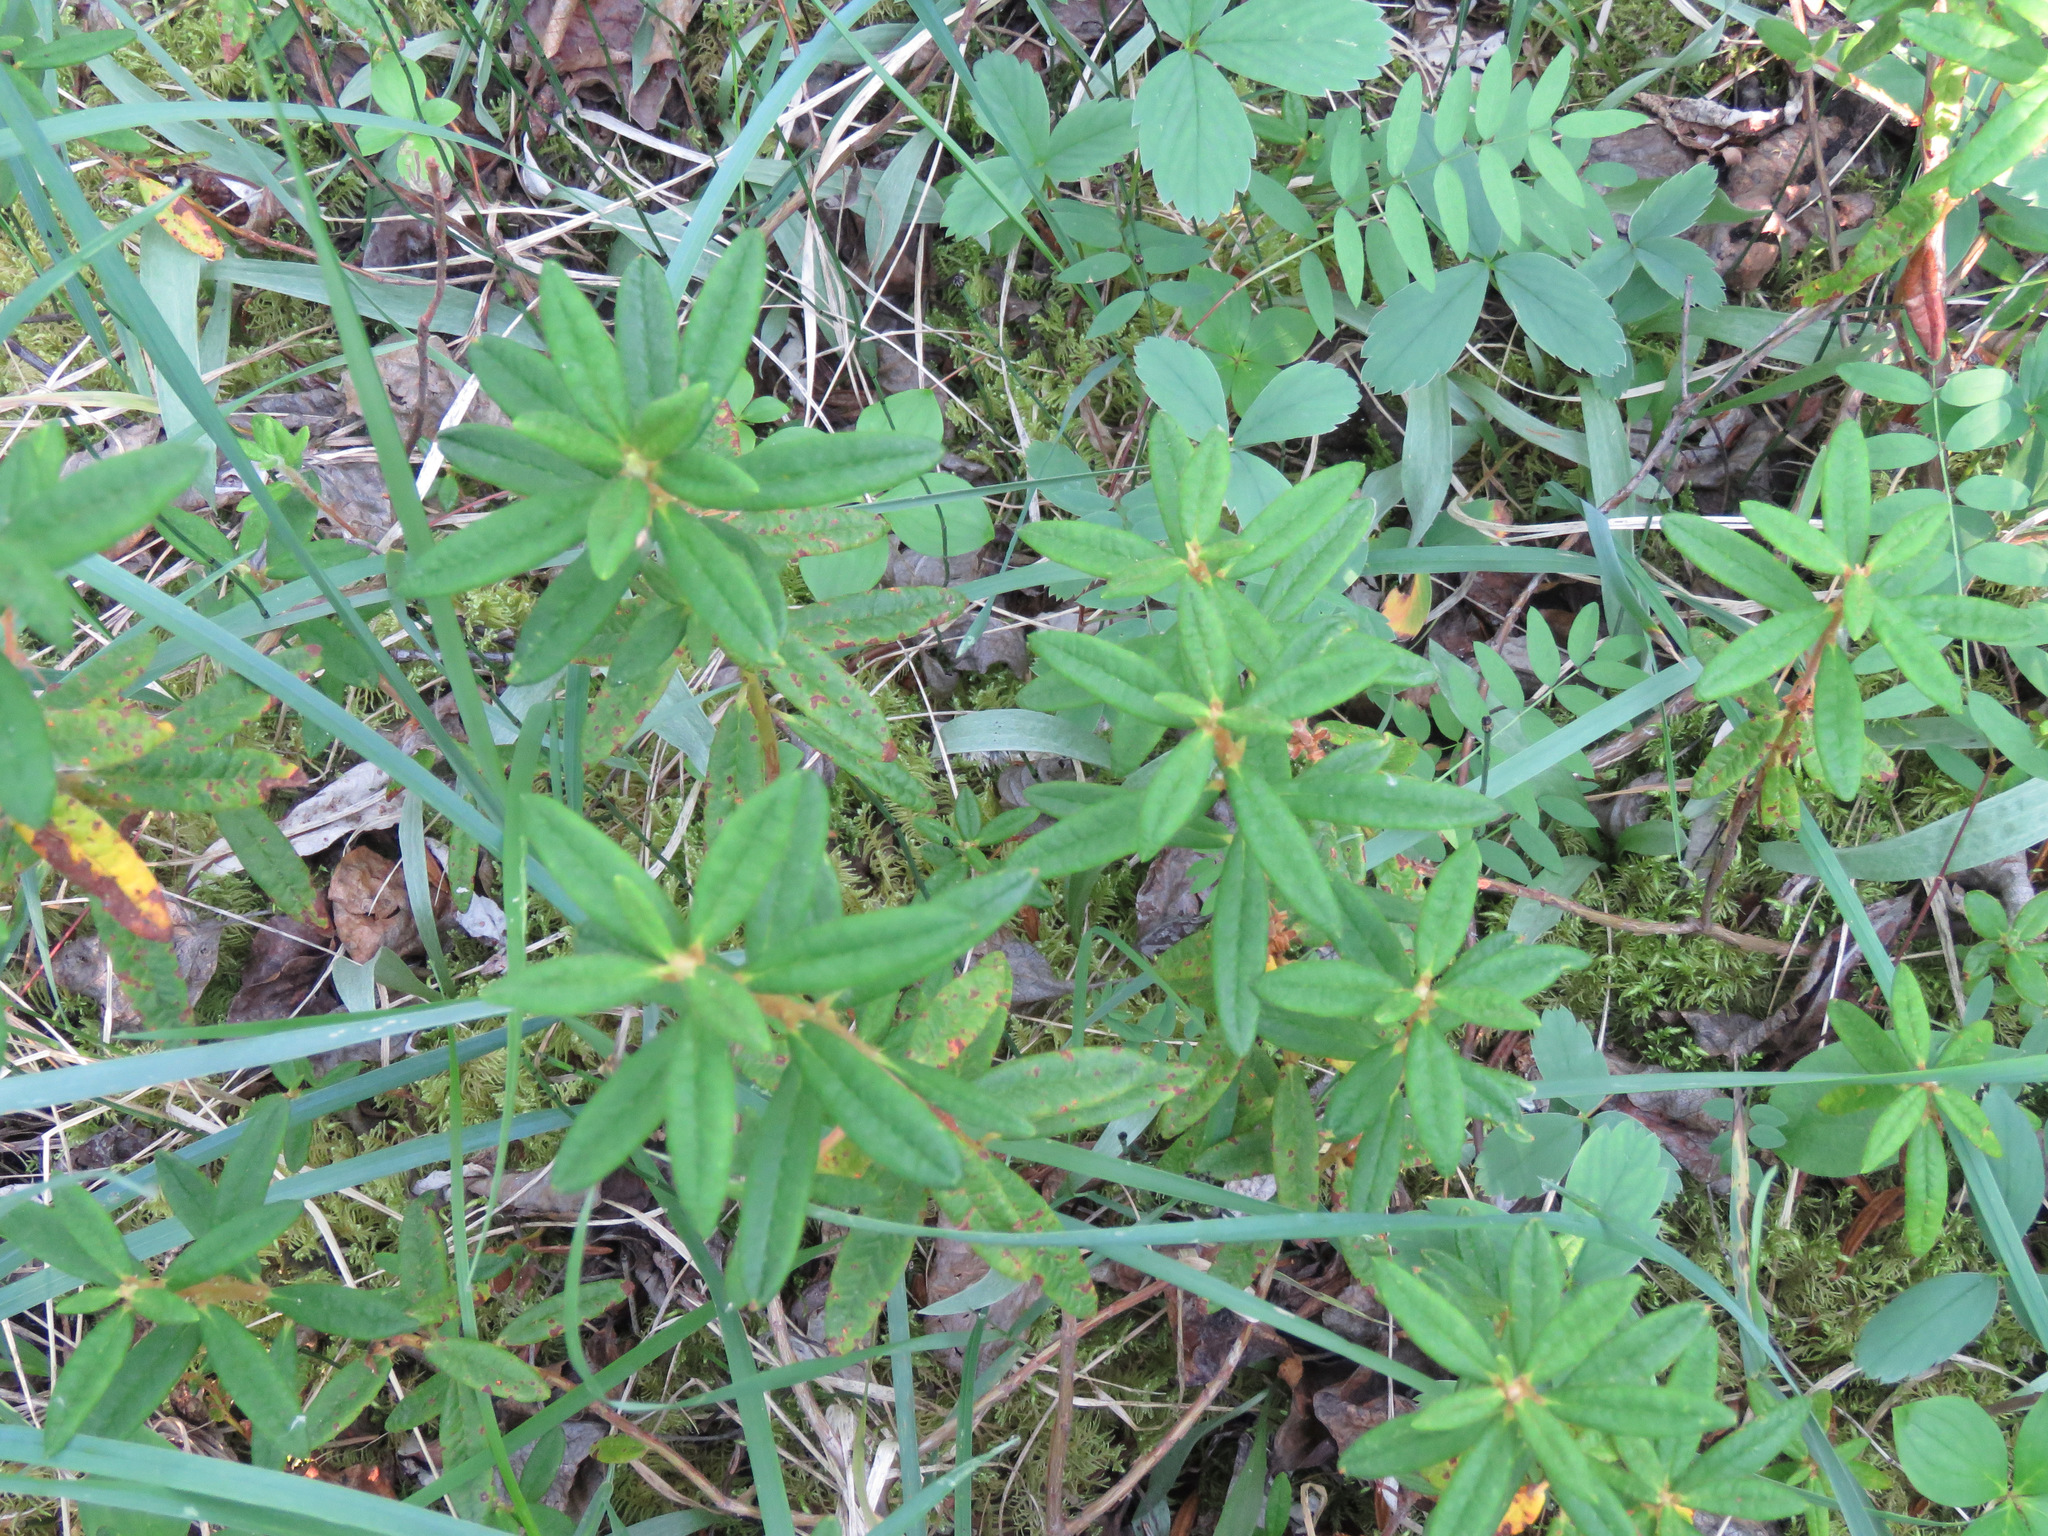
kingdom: Plantae
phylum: Tracheophyta
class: Magnoliopsida
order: Ericales
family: Ericaceae
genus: Rhododendron
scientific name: Rhododendron groenlandicum
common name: Bog labrador tea
